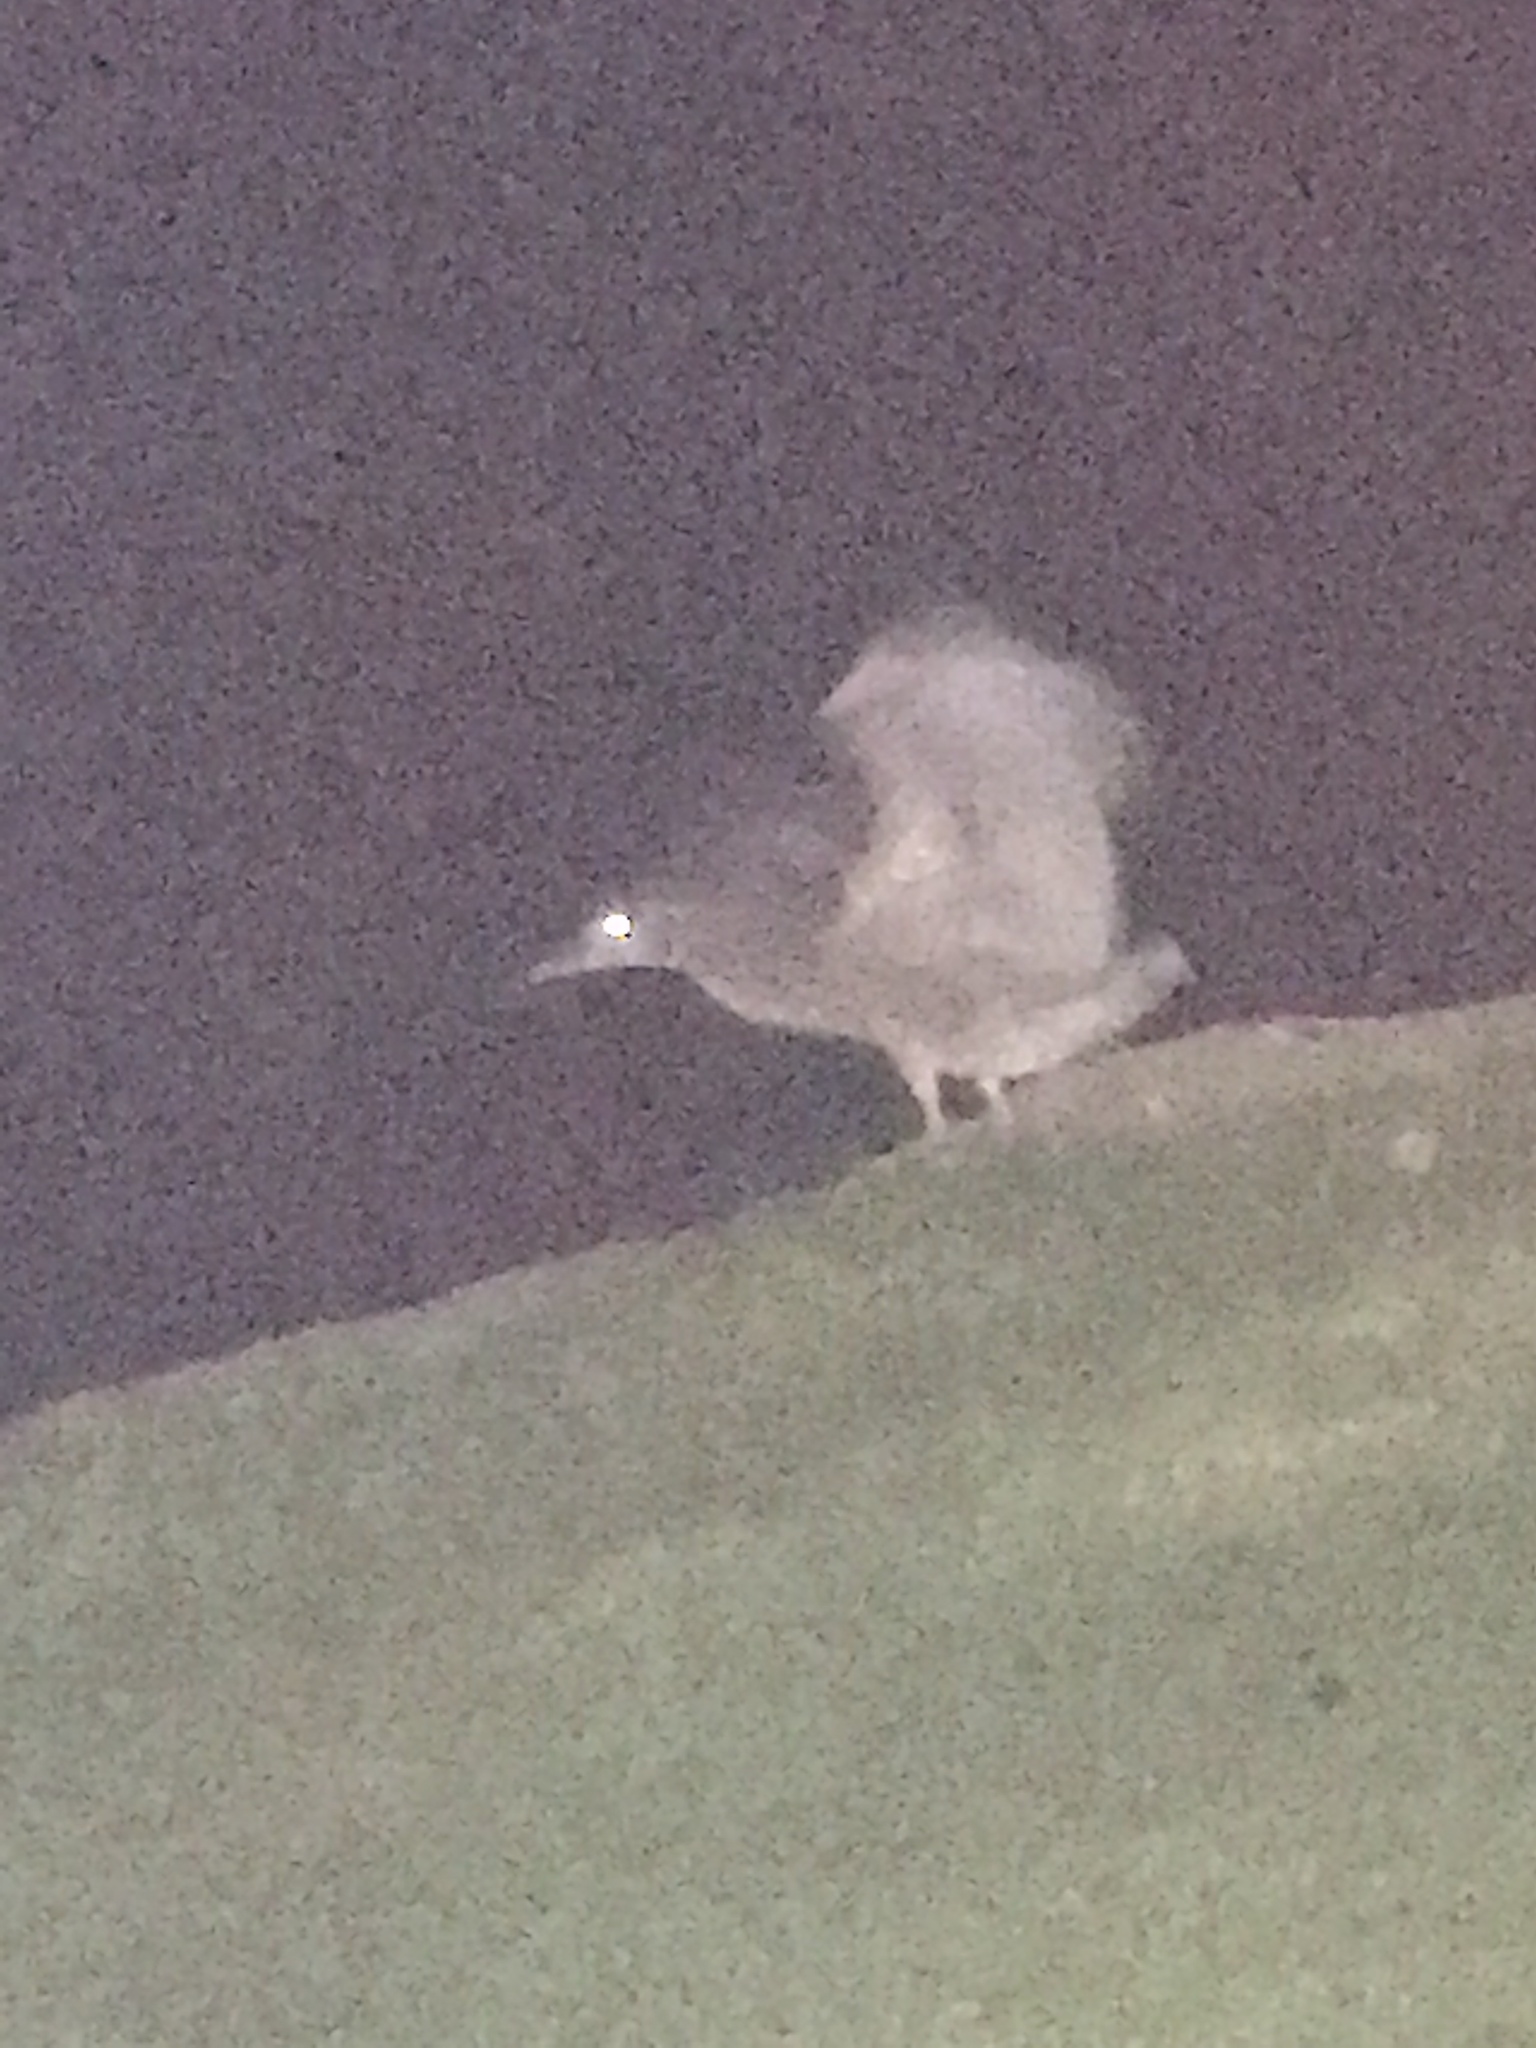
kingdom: Animalia
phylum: Chordata
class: Aves
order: Pelecaniformes
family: Ardeidae
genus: Nycticorax
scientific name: Nycticorax nycticorax
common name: Black-crowned night heron
